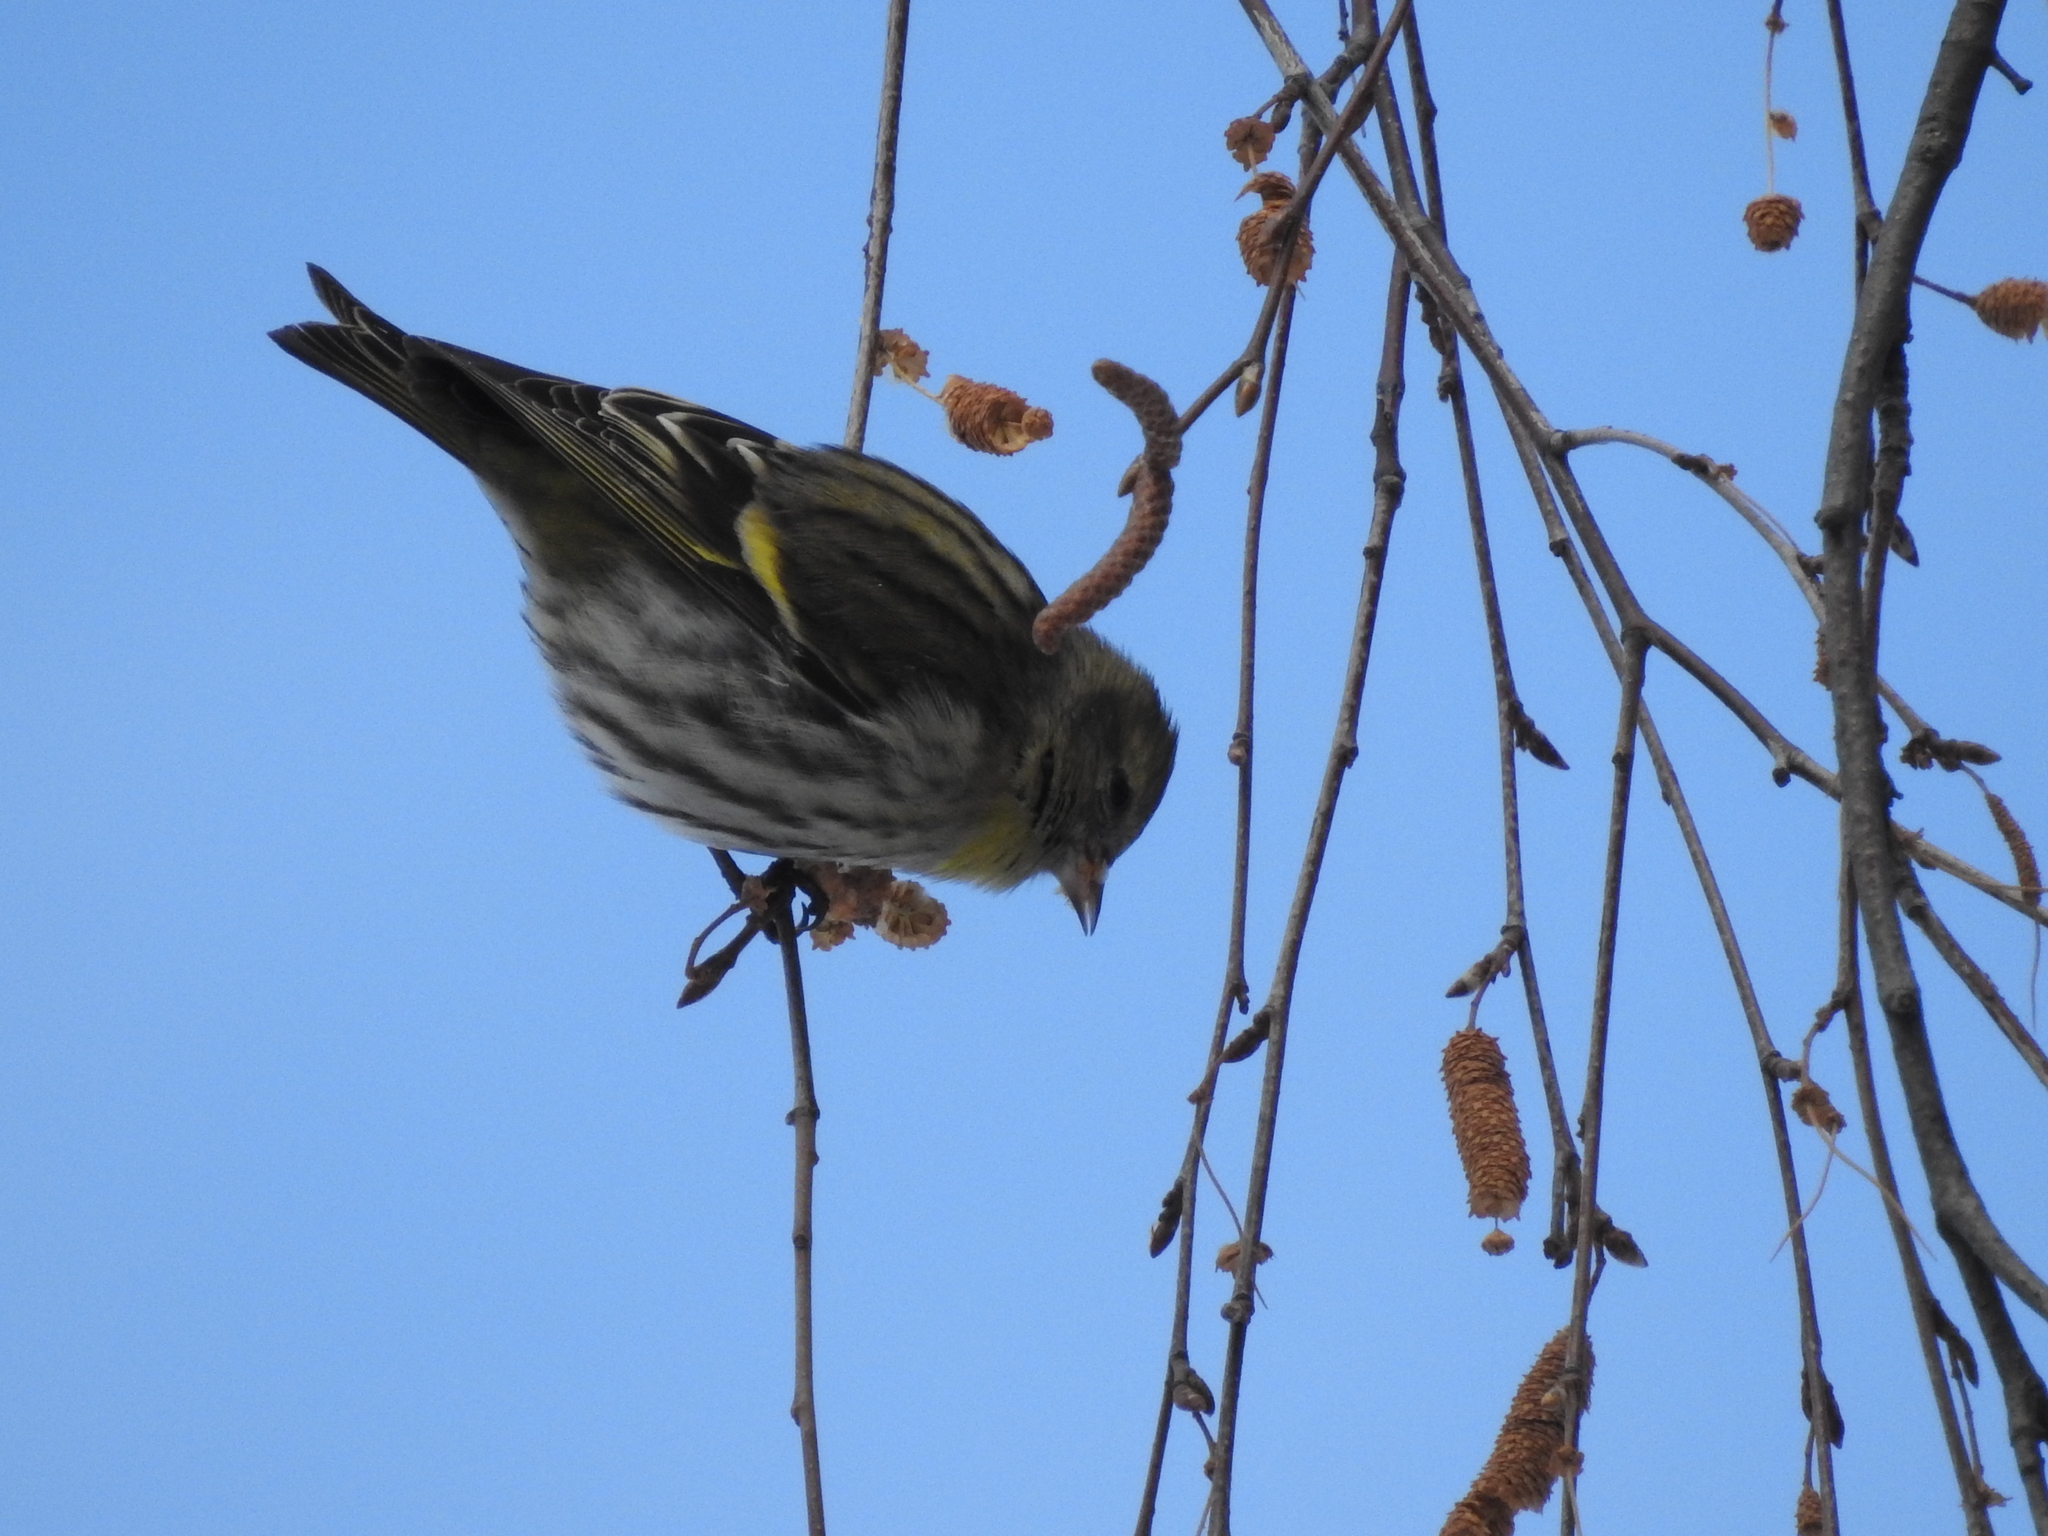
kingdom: Animalia
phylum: Chordata
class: Aves
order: Passeriformes
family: Fringillidae
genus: Spinus
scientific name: Spinus spinus
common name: Eurasian siskin
